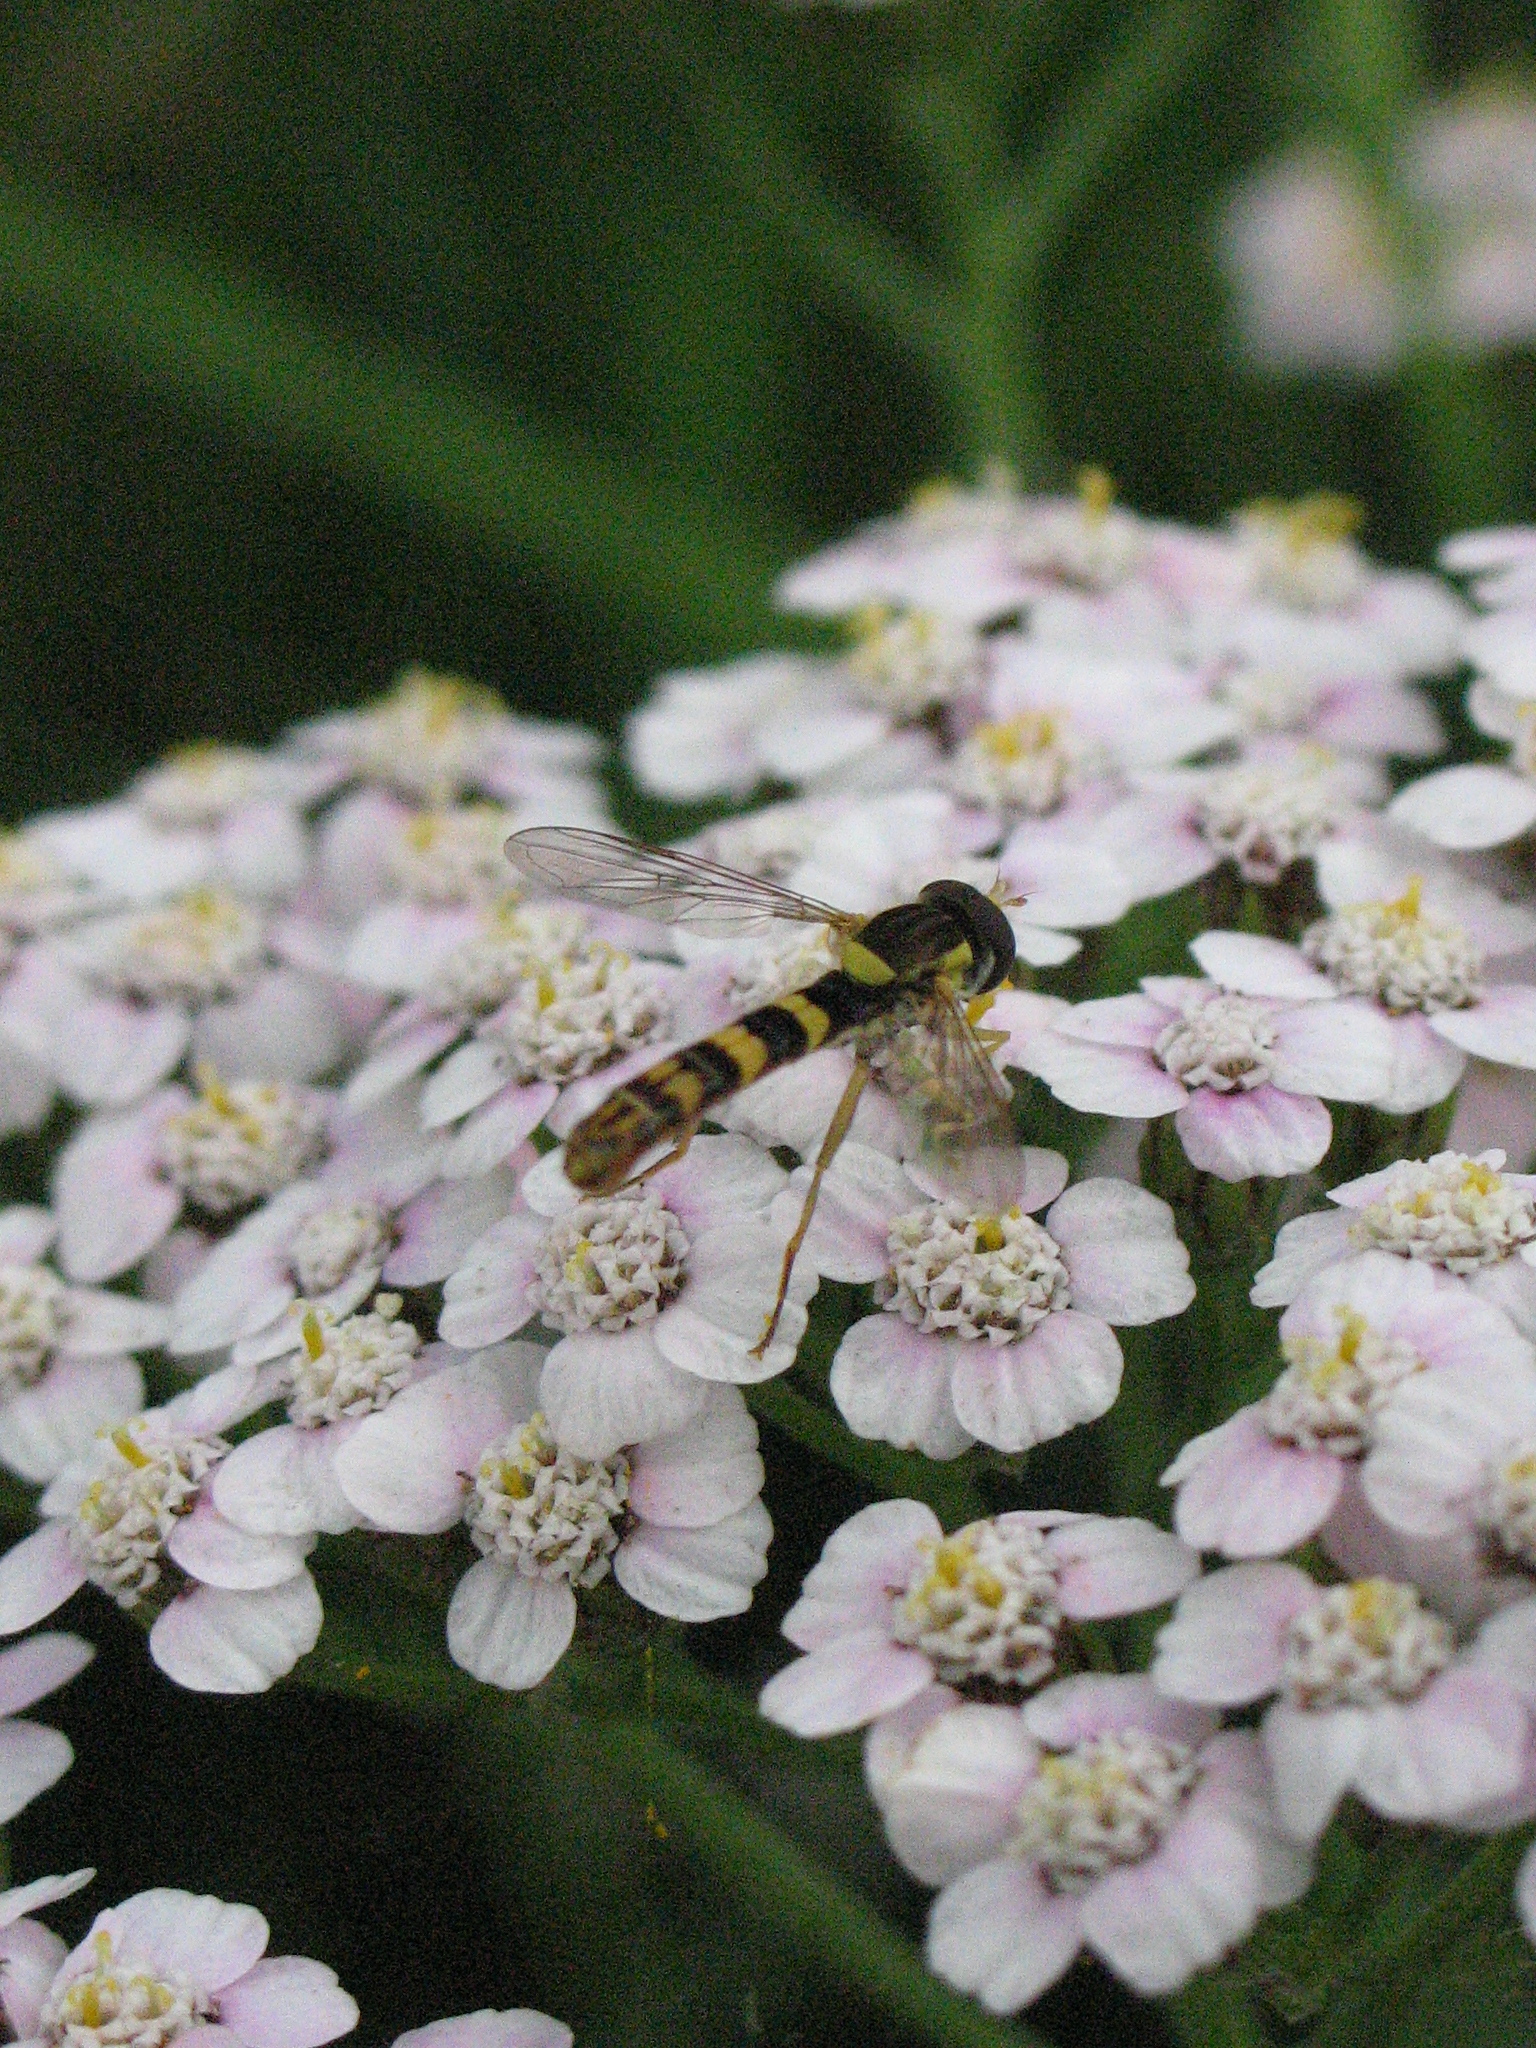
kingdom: Animalia
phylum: Arthropoda
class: Insecta
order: Diptera
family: Syrphidae
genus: Sphaerophoria
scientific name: Sphaerophoria scripta
